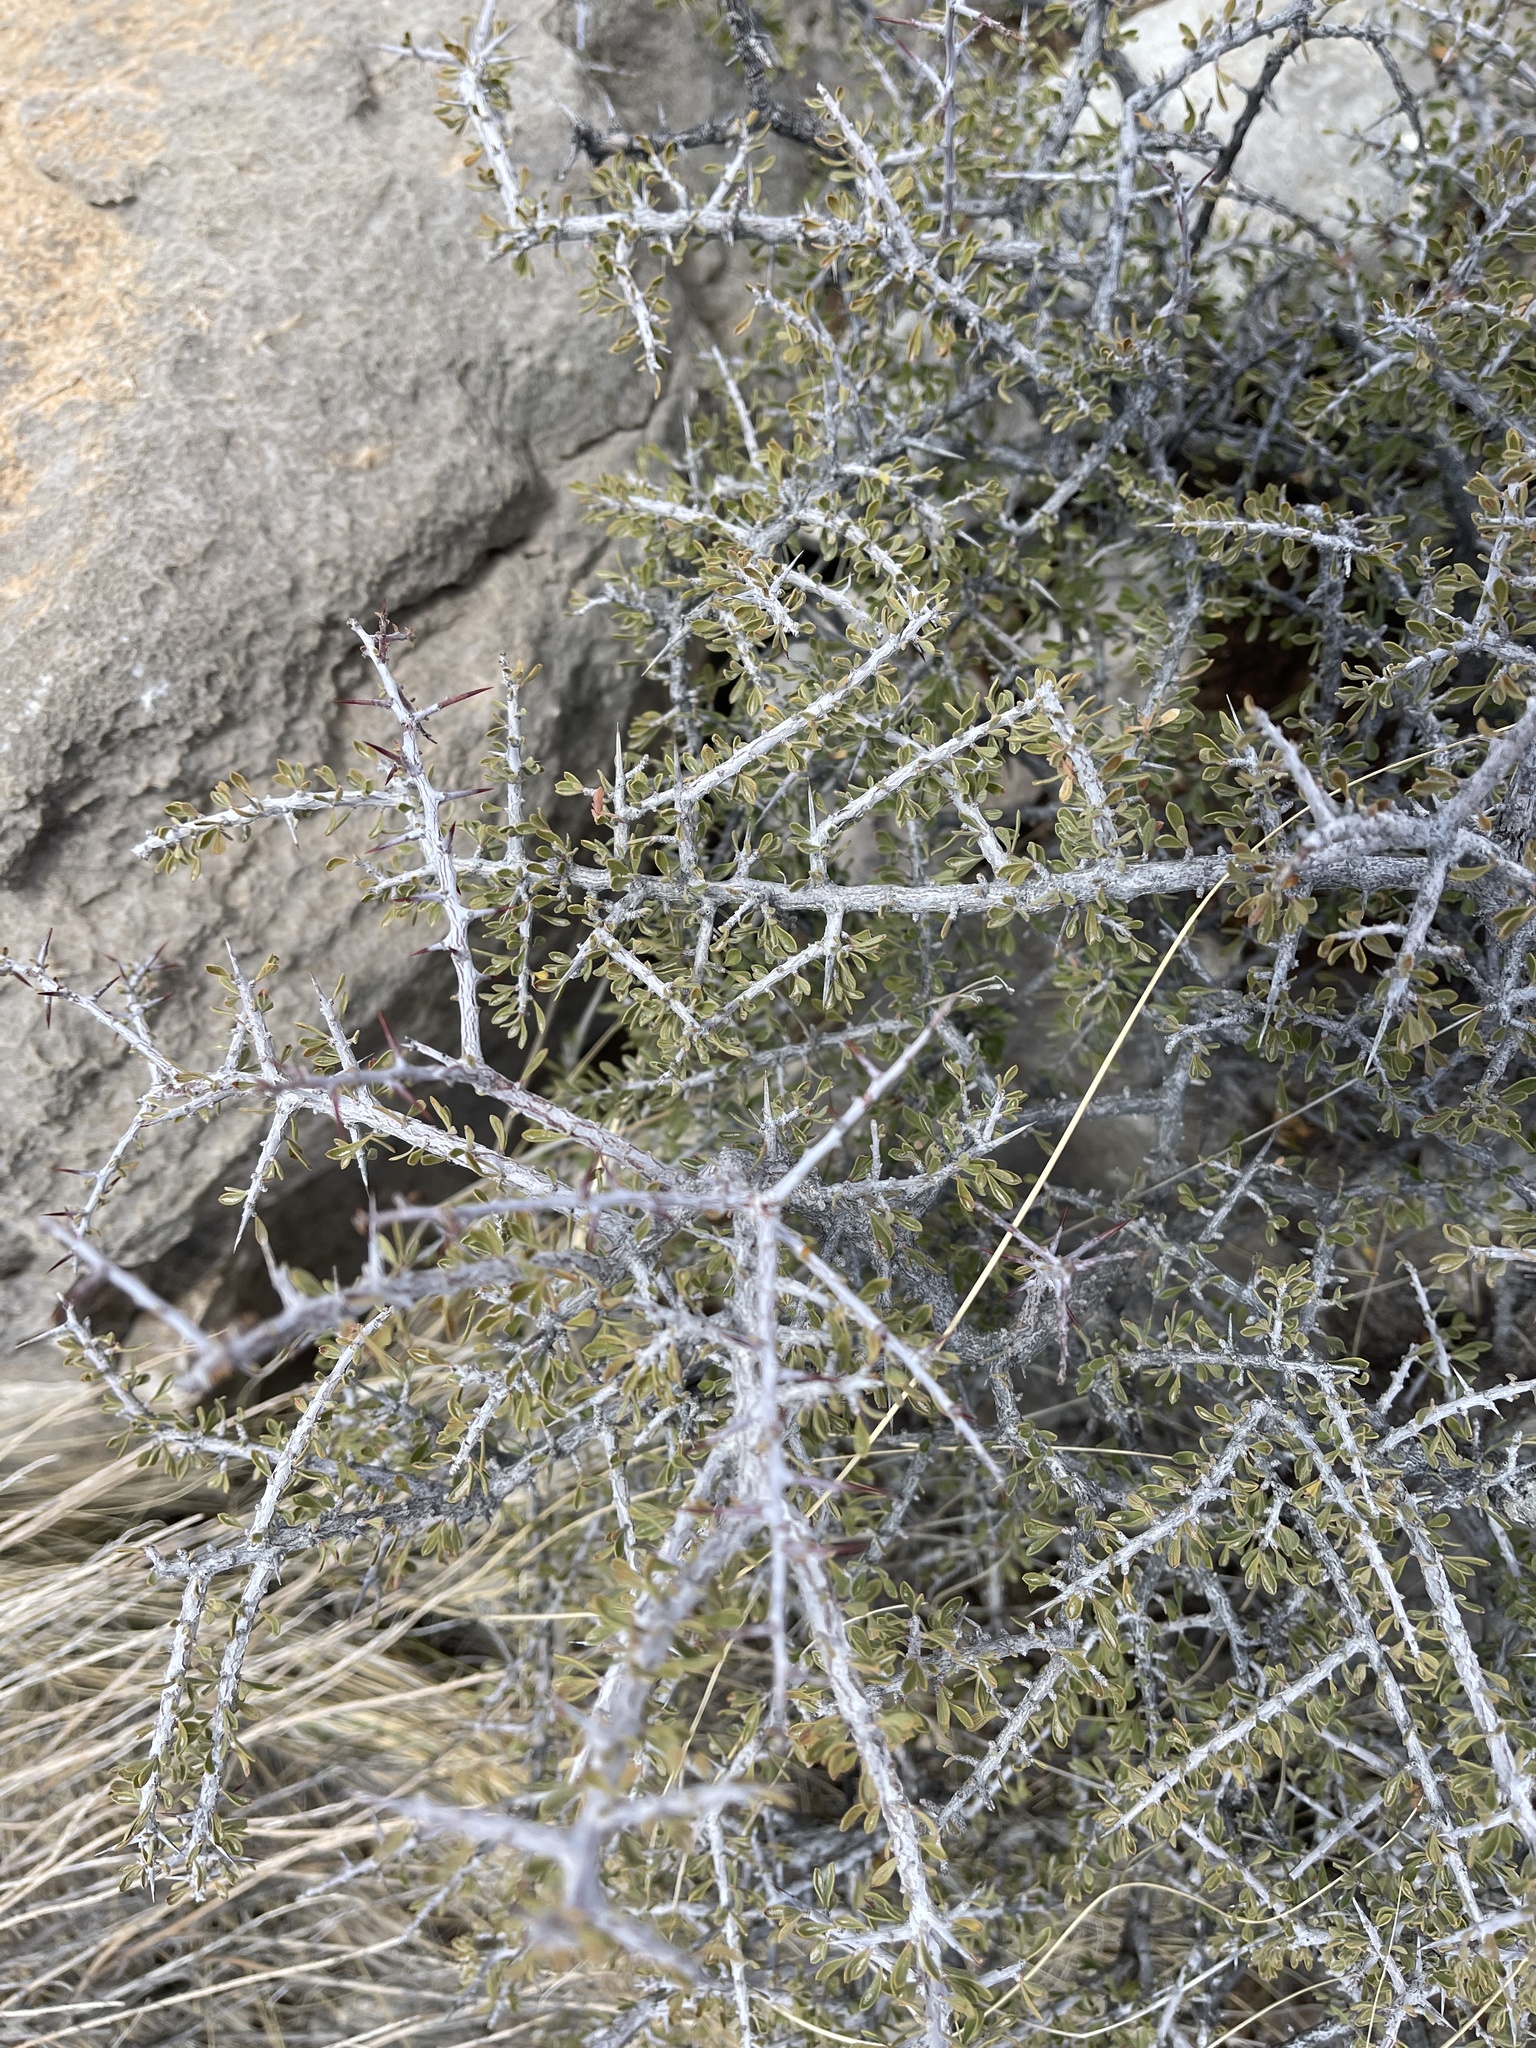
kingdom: Plantae
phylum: Tracheophyta
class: Magnoliopsida
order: Rosales
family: Rhamnaceae
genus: Condalia
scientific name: Condalia warnockii
